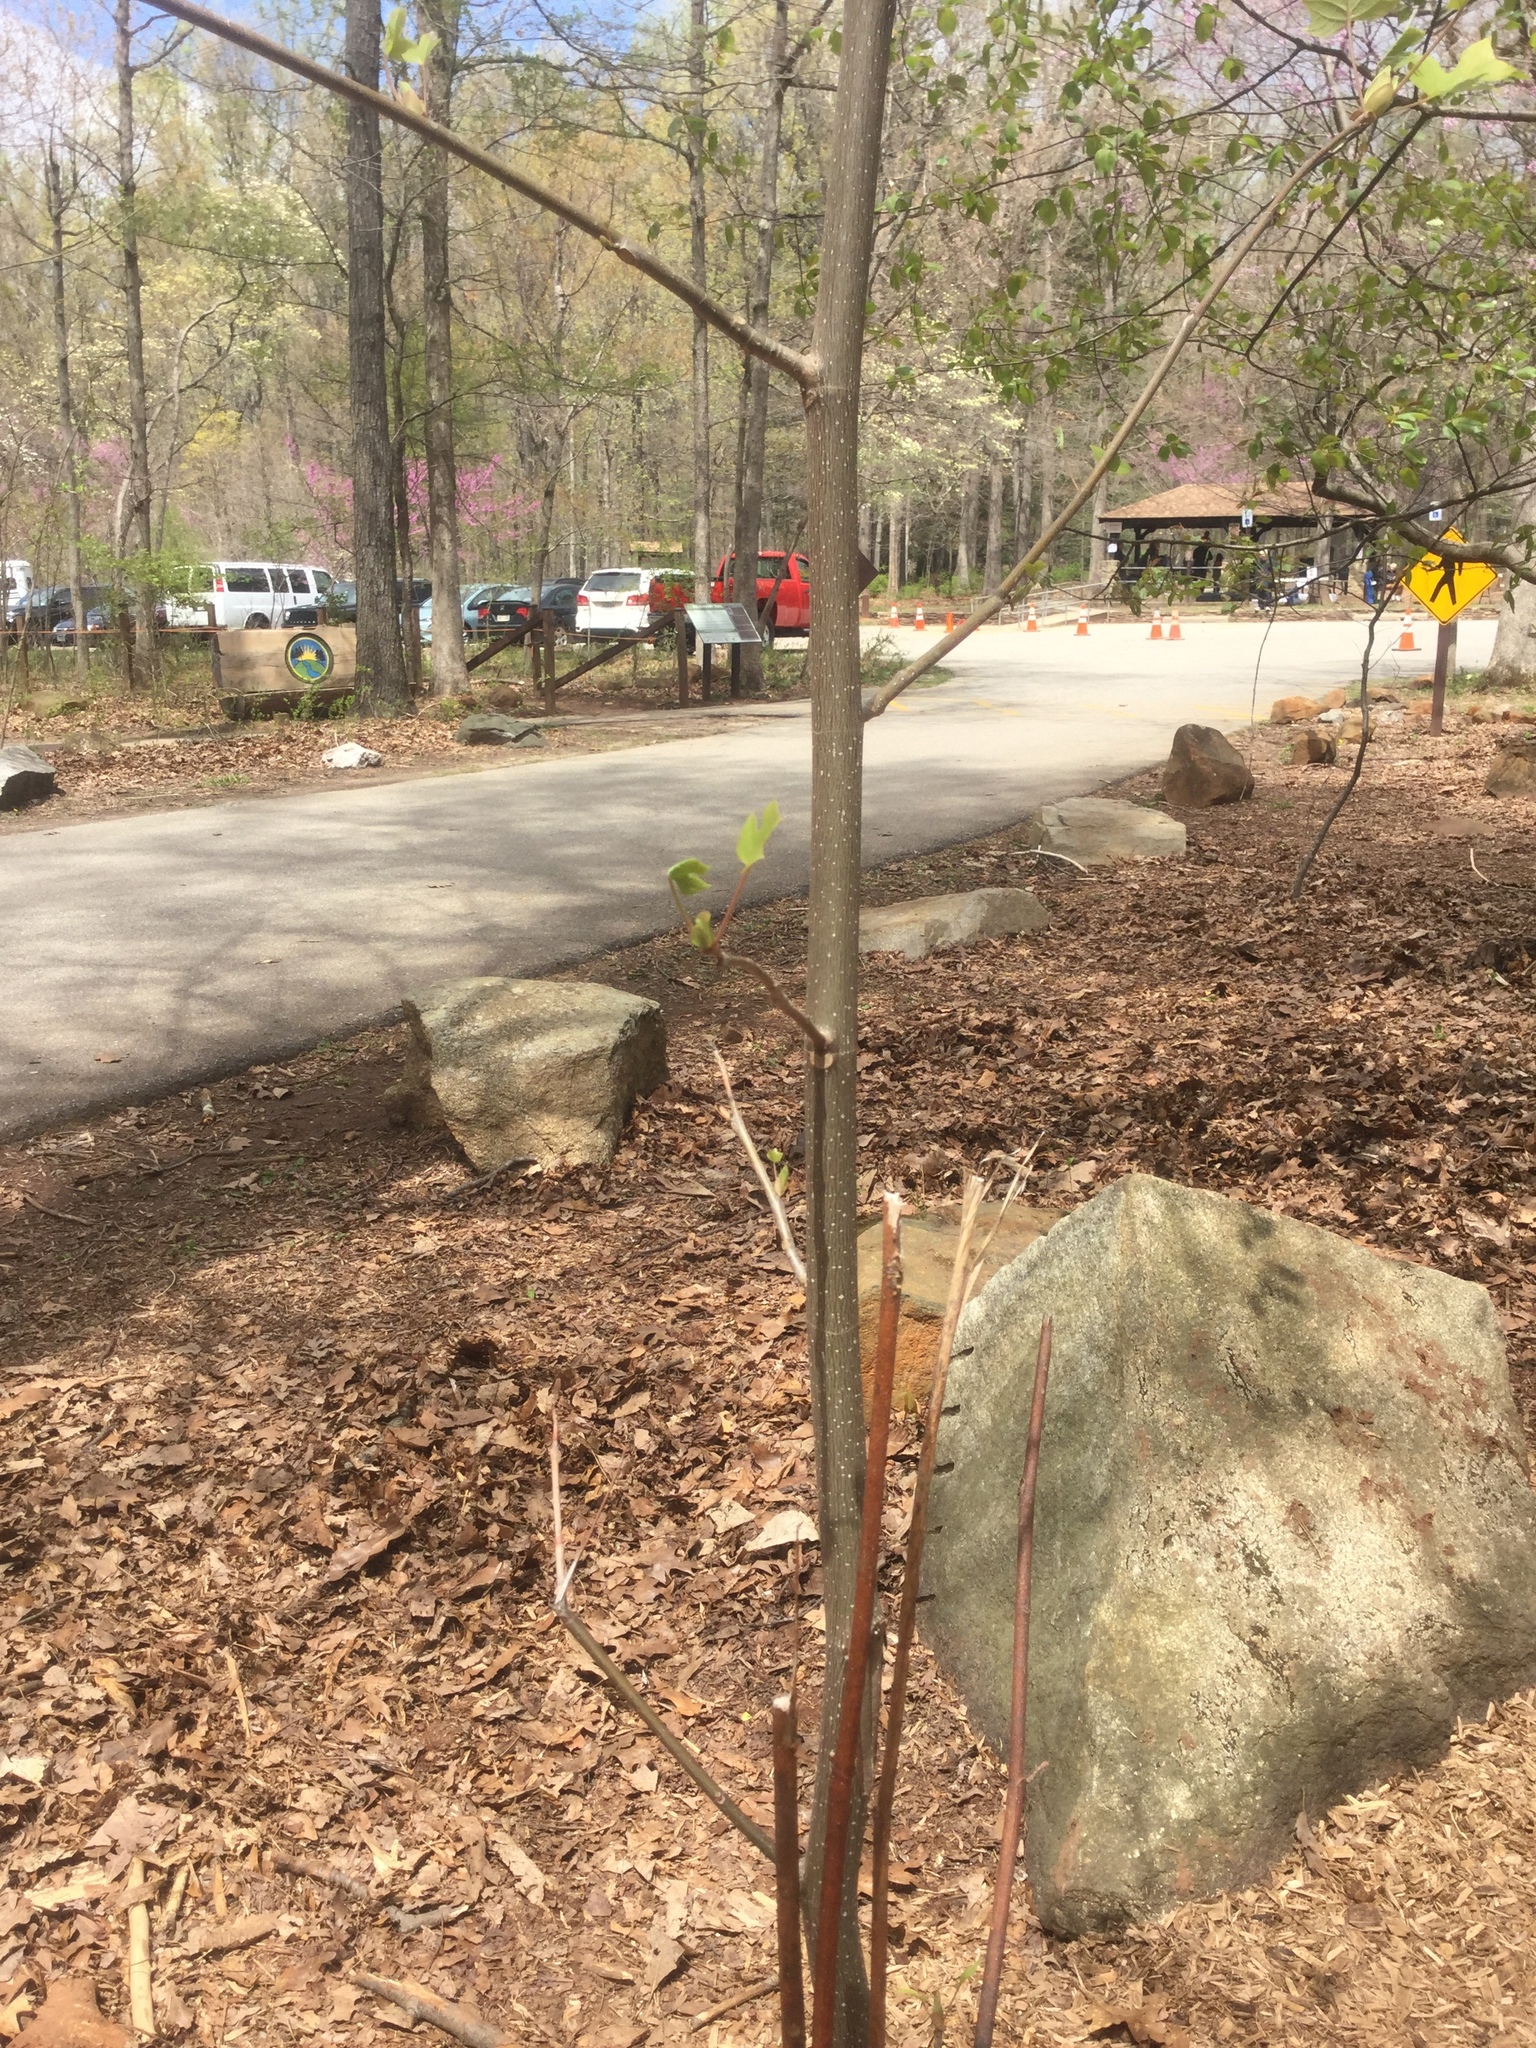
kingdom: Plantae
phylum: Tracheophyta
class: Magnoliopsida
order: Magnoliales
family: Magnoliaceae
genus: Liriodendron
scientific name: Liriodendron tulipifera
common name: Tulip tree
